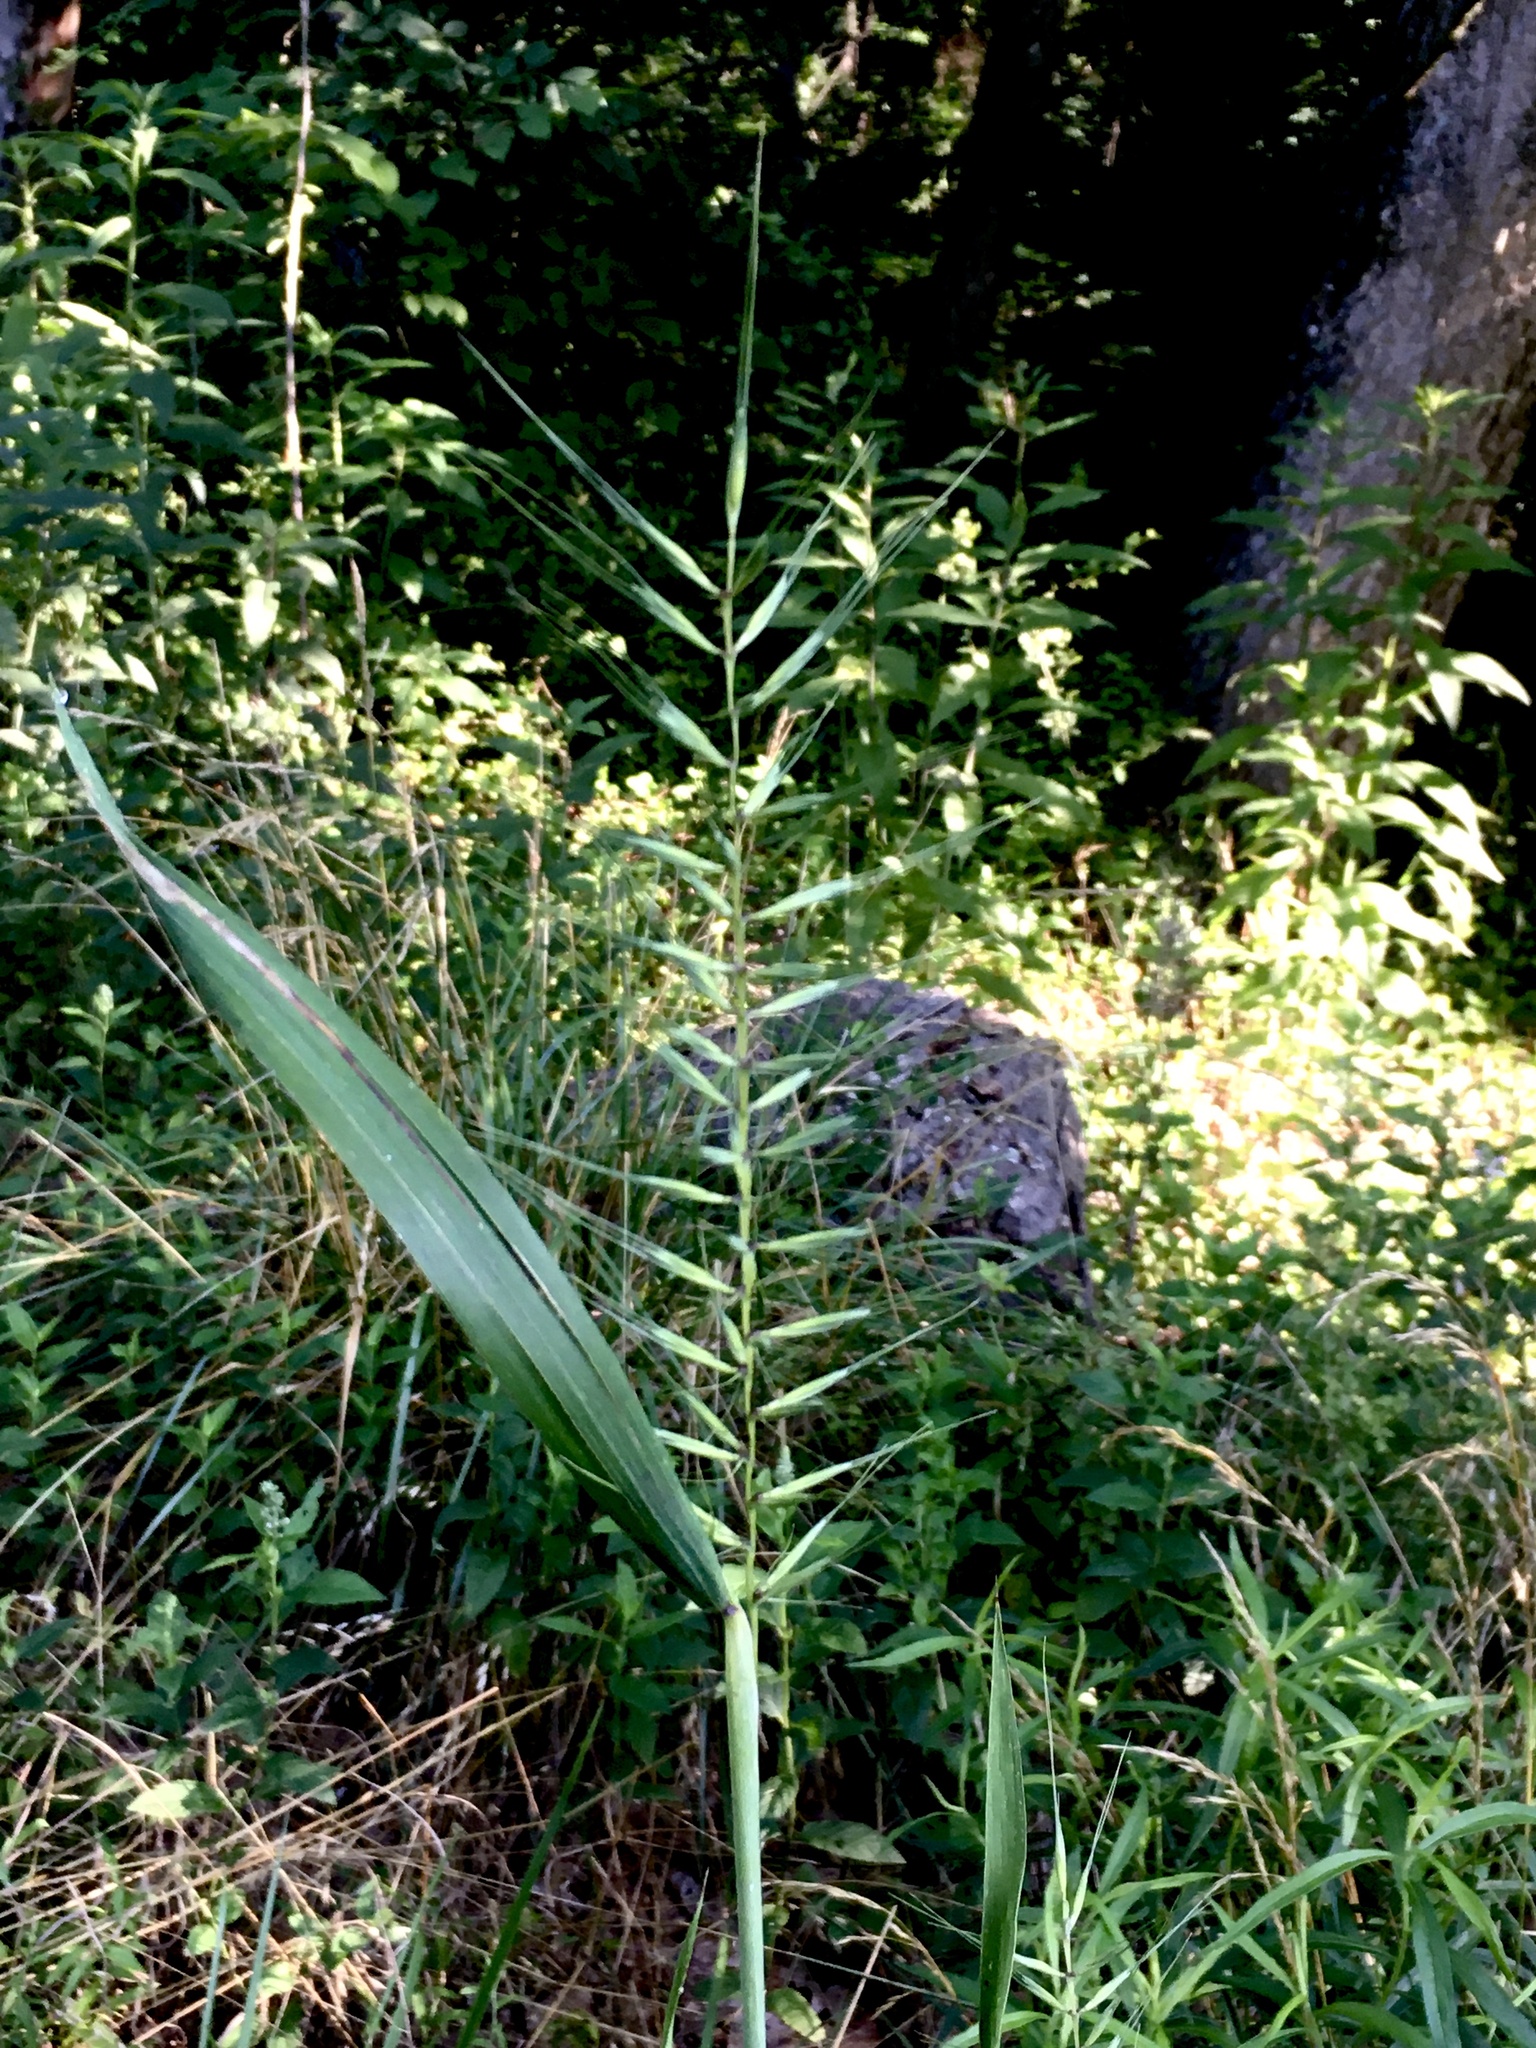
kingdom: Plantae
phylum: Tracheophyta
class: Liliopsida
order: Poales
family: Poaceae
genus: Elymus
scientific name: Elymus hystrix
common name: Bottlebrush grass
